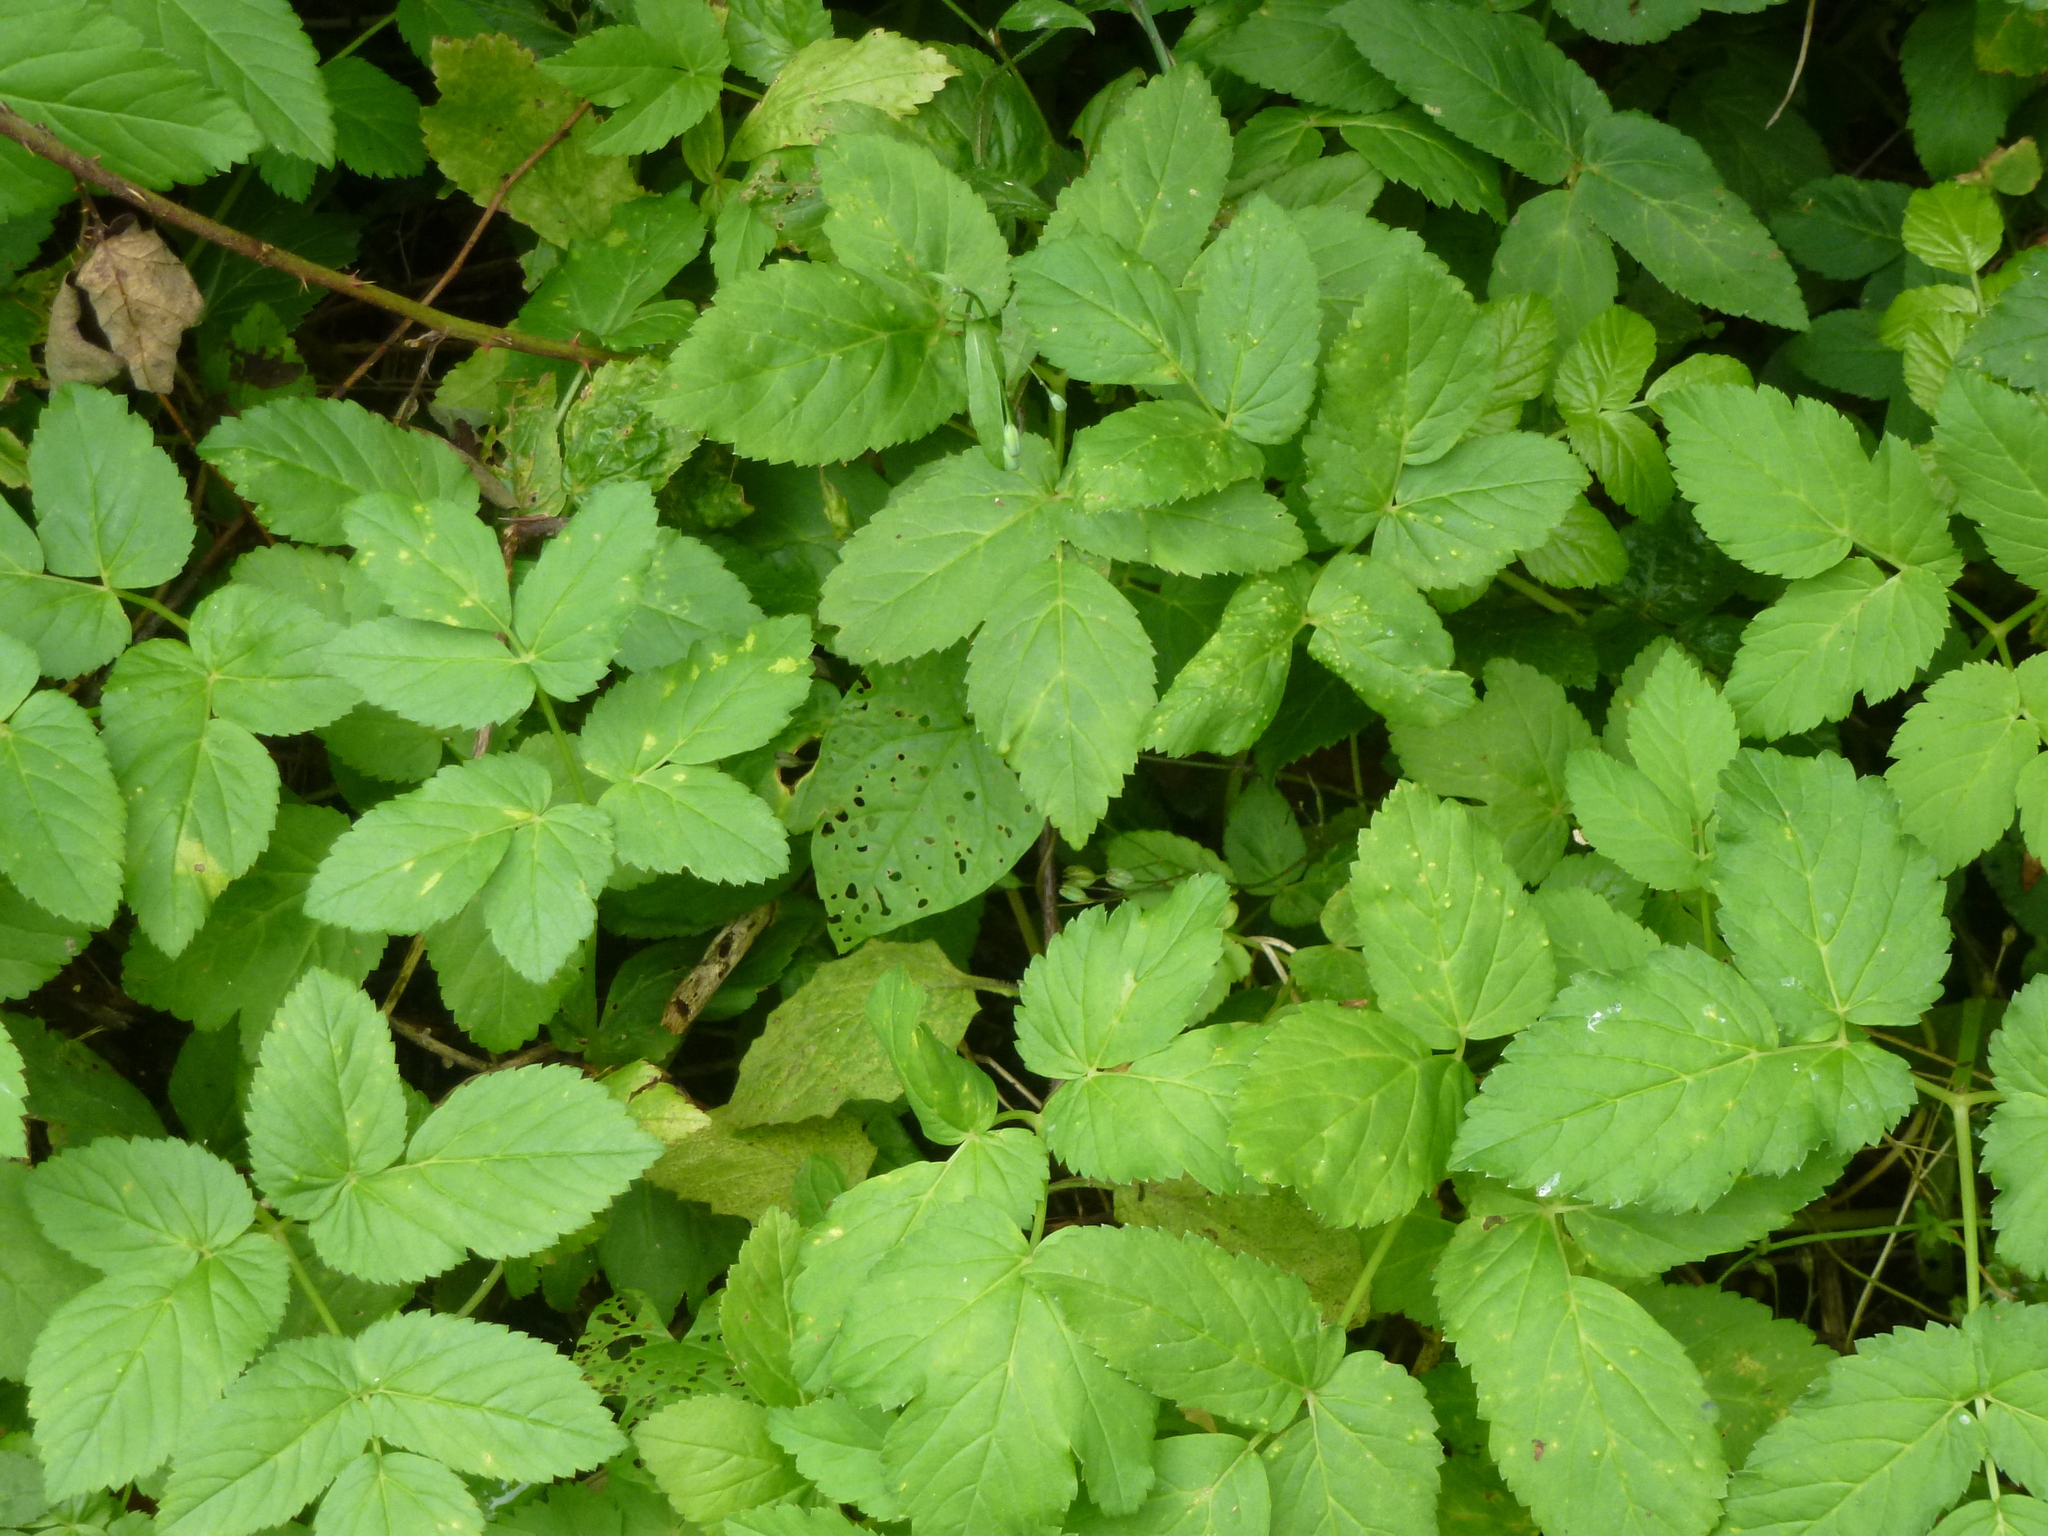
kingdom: Plantae
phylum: Tracheophyta
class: Magnoliopsida
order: Apiales
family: Apiaceae
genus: Aegopodium
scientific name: Aegopodium podagraria
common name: Ground-elder
